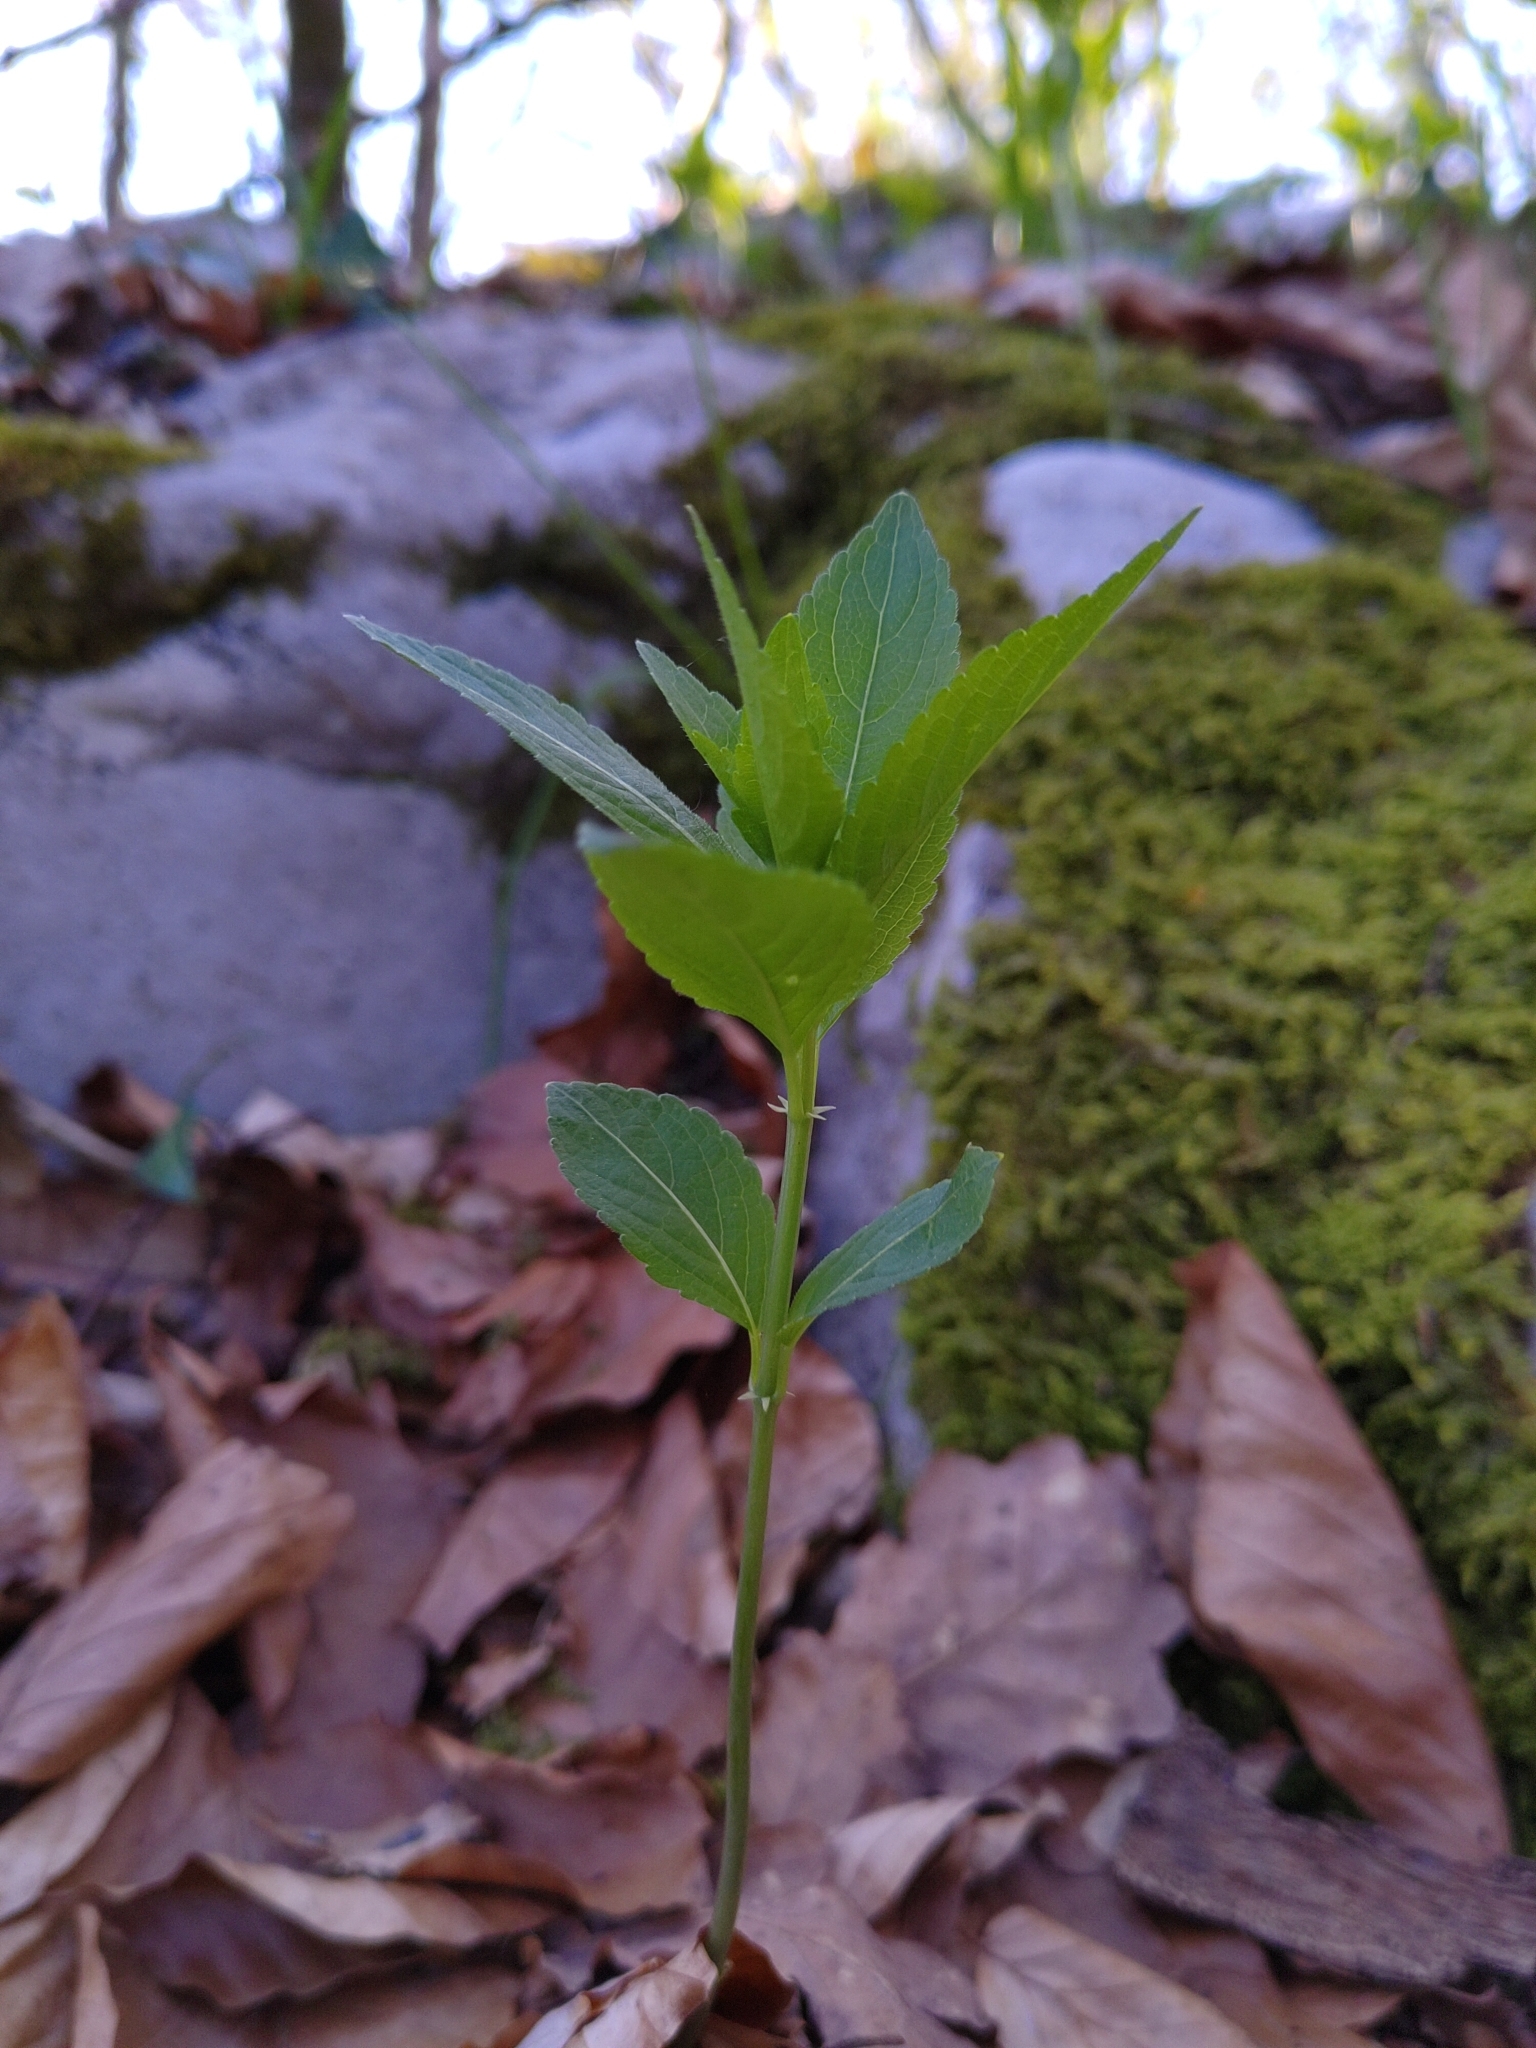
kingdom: Plantae
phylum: Tracheophyta
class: Magnoliopsida
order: Malpighiales
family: Euphorbiaceae
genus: Mercurialis
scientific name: Mercurialis perennis
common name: Dog mercury
